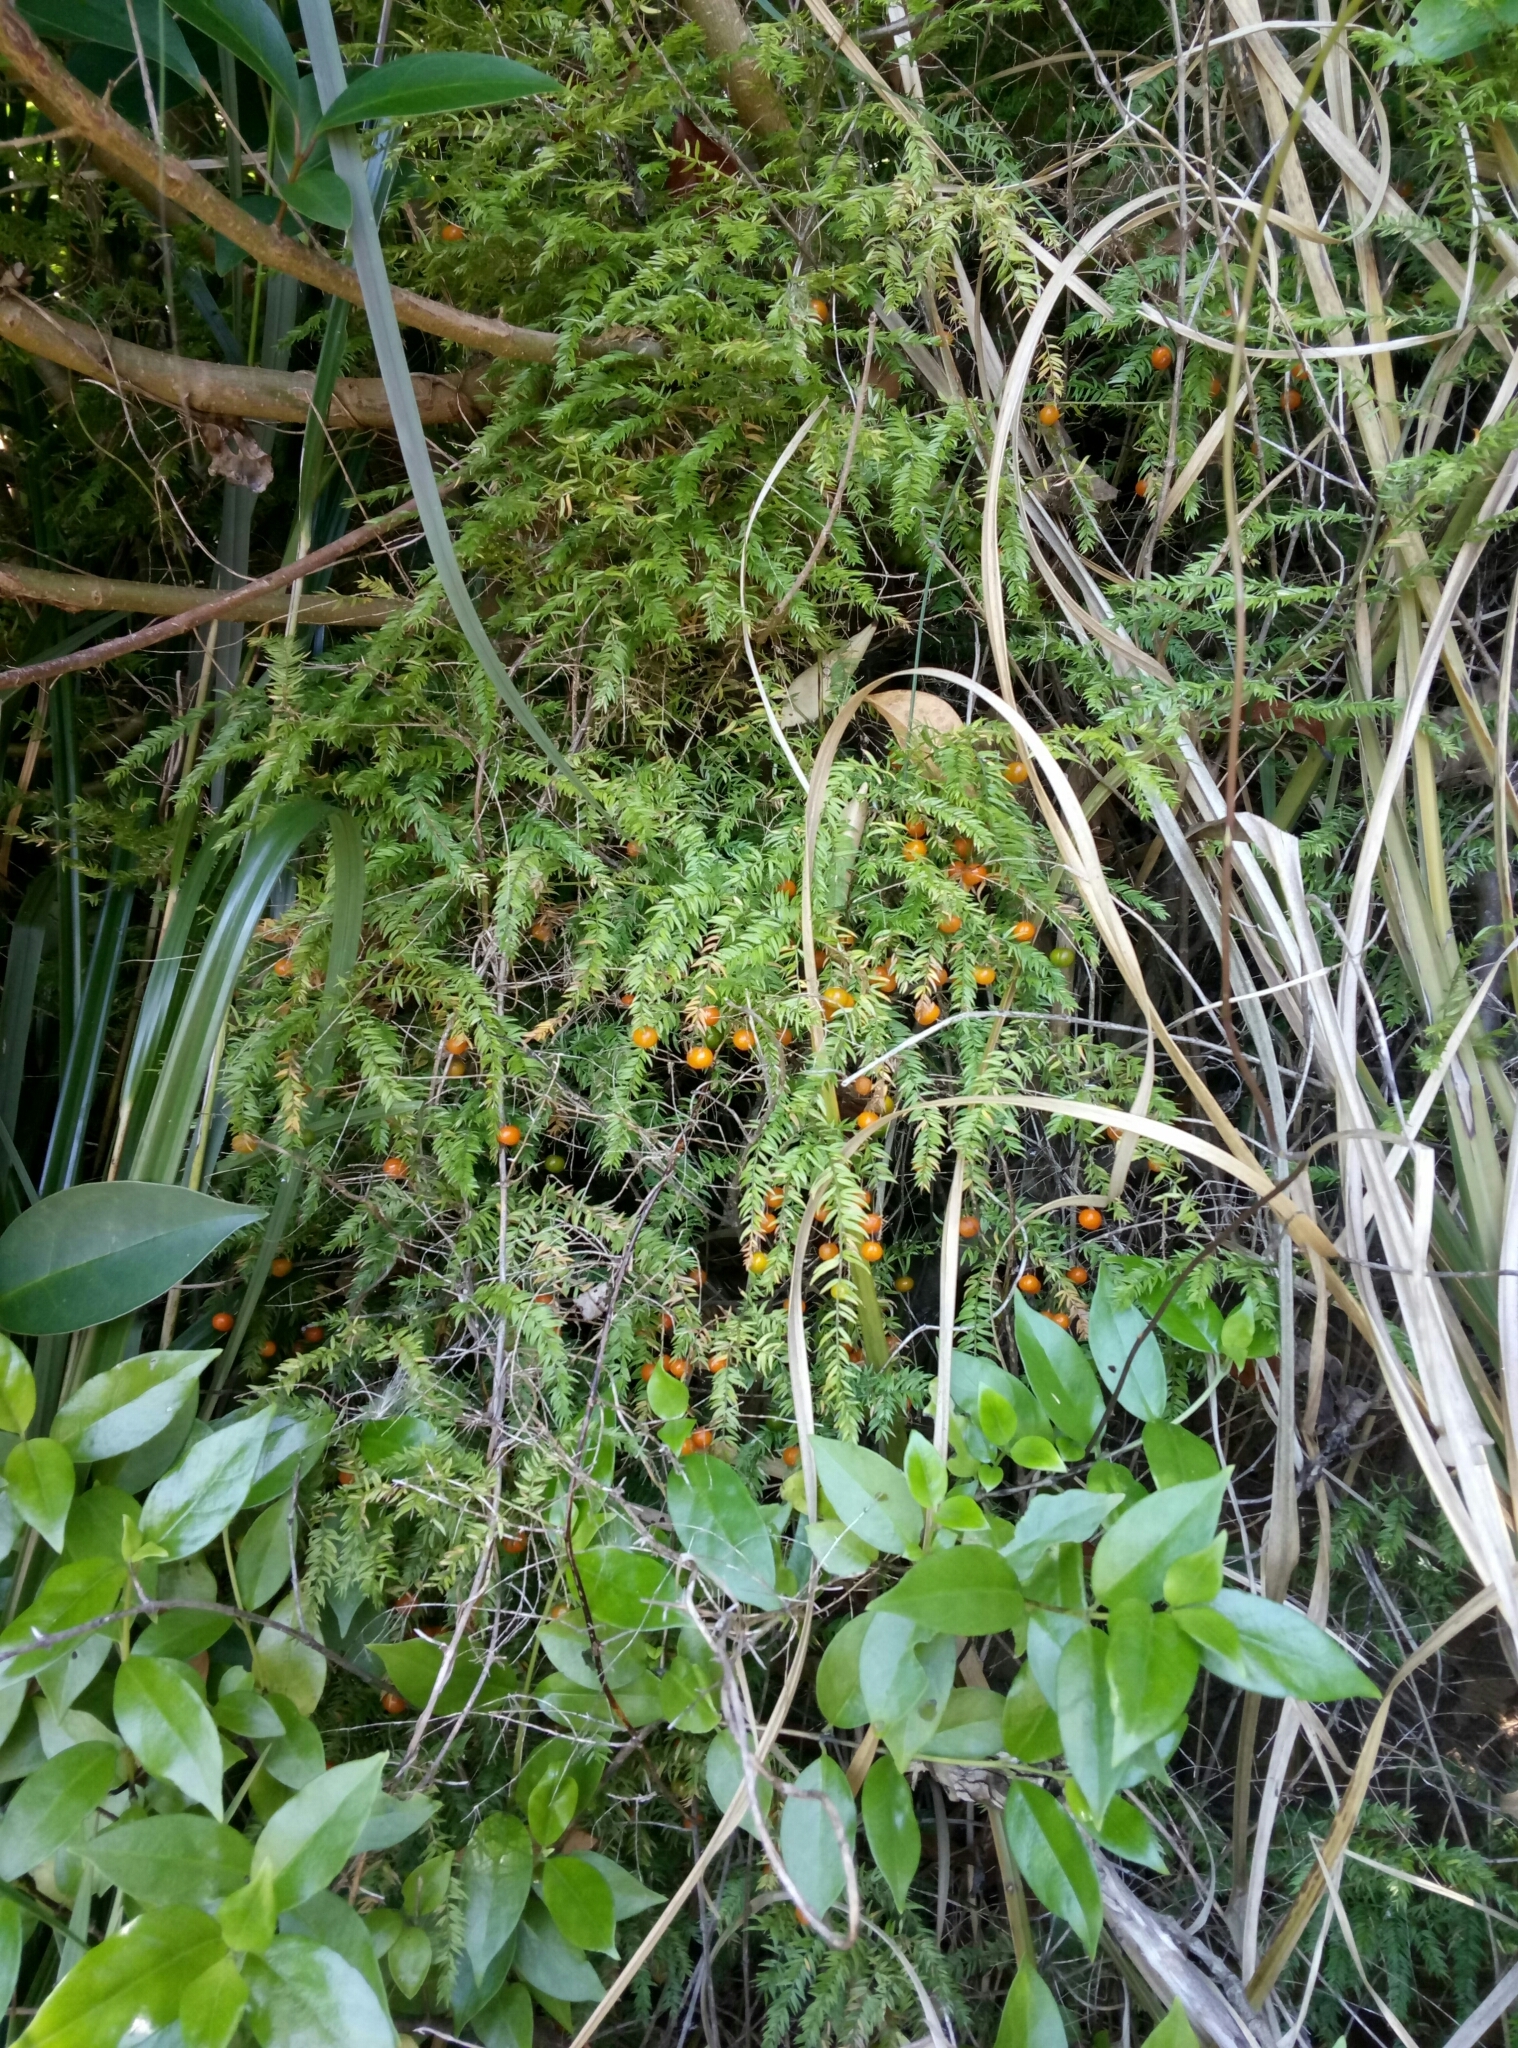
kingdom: Plantae
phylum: Tracheophyta
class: Liliopsida
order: Asparagales
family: Asparagaceae
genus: Asparagus
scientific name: Asparagus scandens
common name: Asparagus-fern
